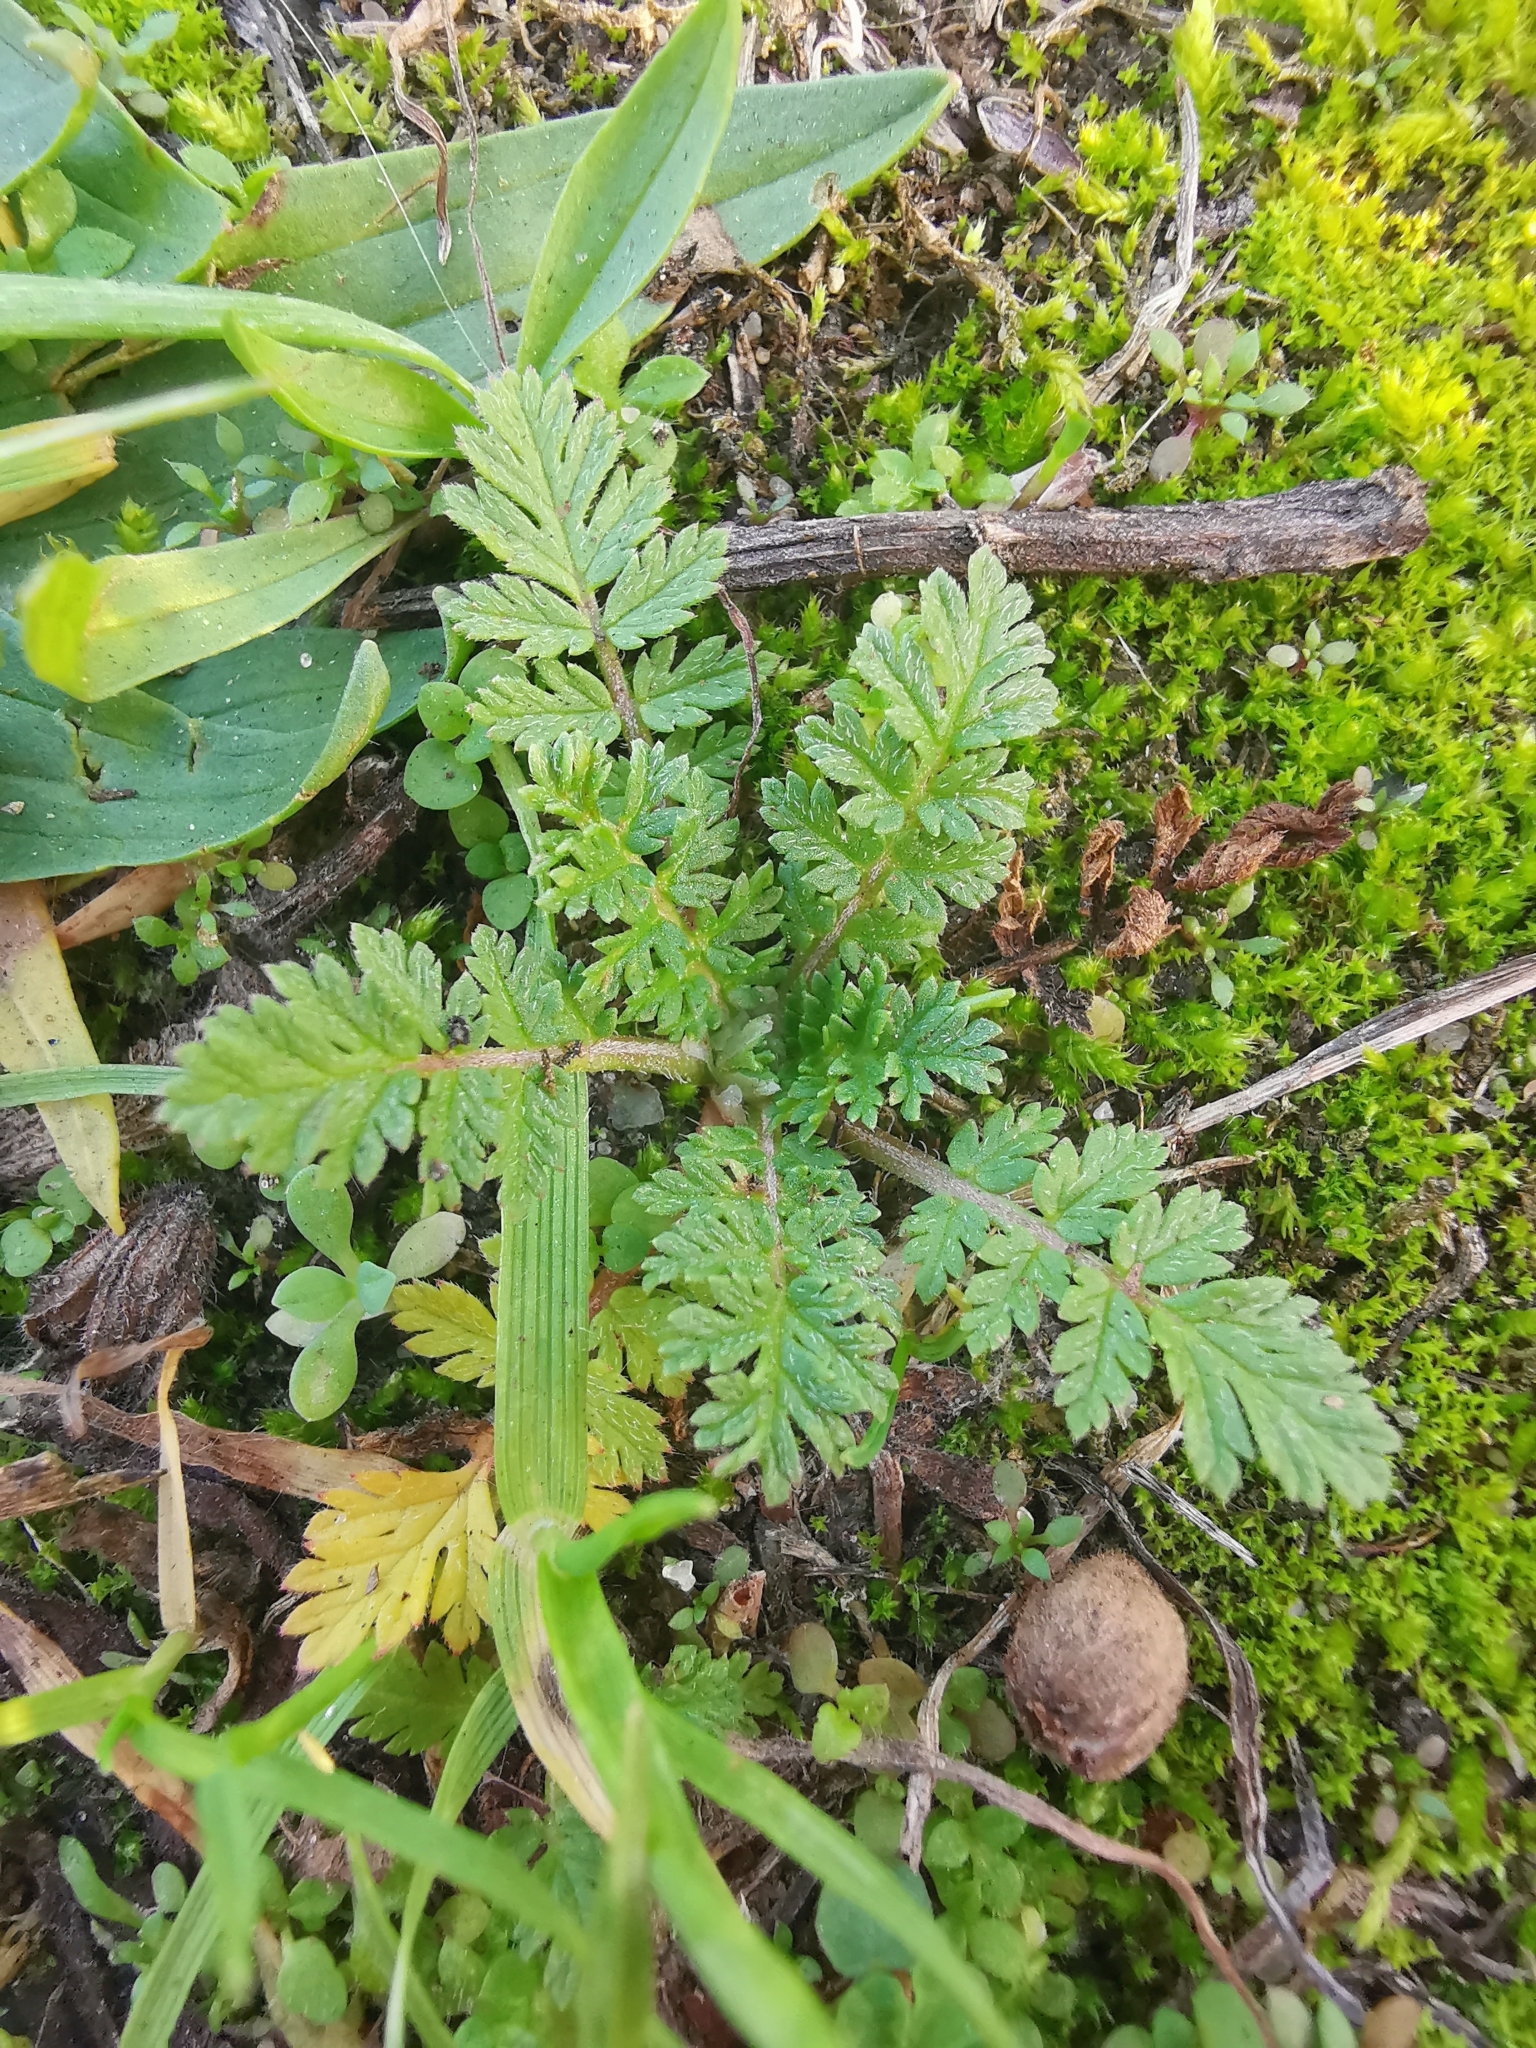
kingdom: Plantae
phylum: Tracheophyta
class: Magnoliopsida
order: Geraniales
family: Geraniaceae
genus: Erodium
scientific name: Erodium cicutarium
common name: Common stork's-bill
